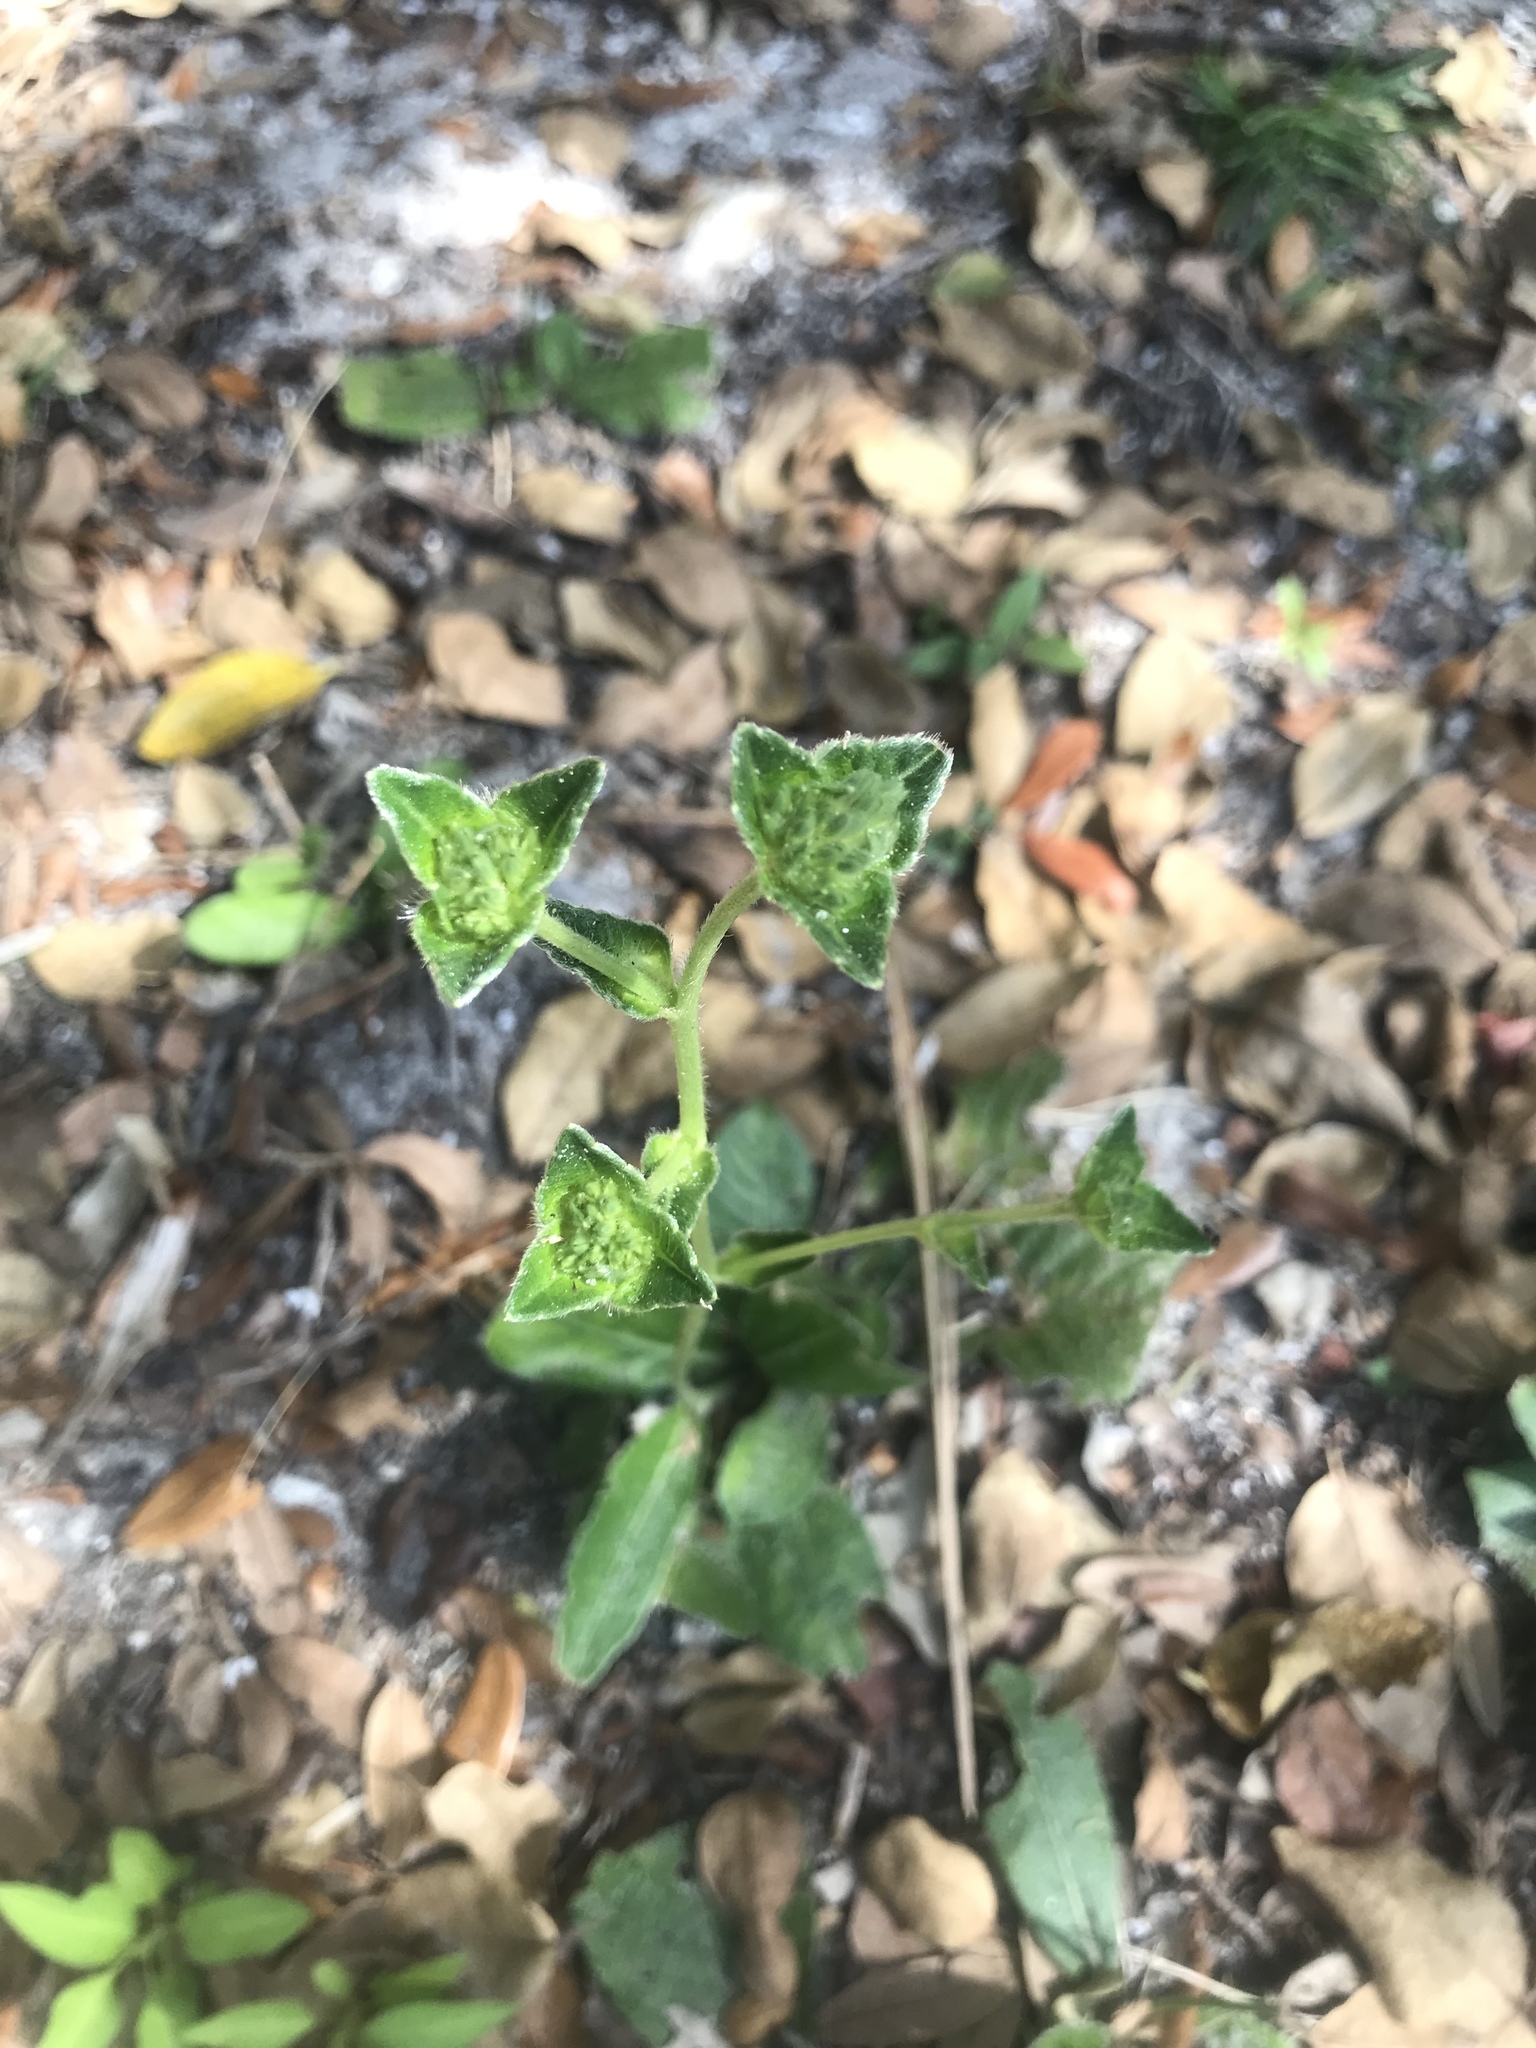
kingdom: Plantae
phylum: Tracheophyta
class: Magnoliopsida
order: Asterales
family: Asteraceae
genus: Elephantopus
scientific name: Elephantopus elatus
